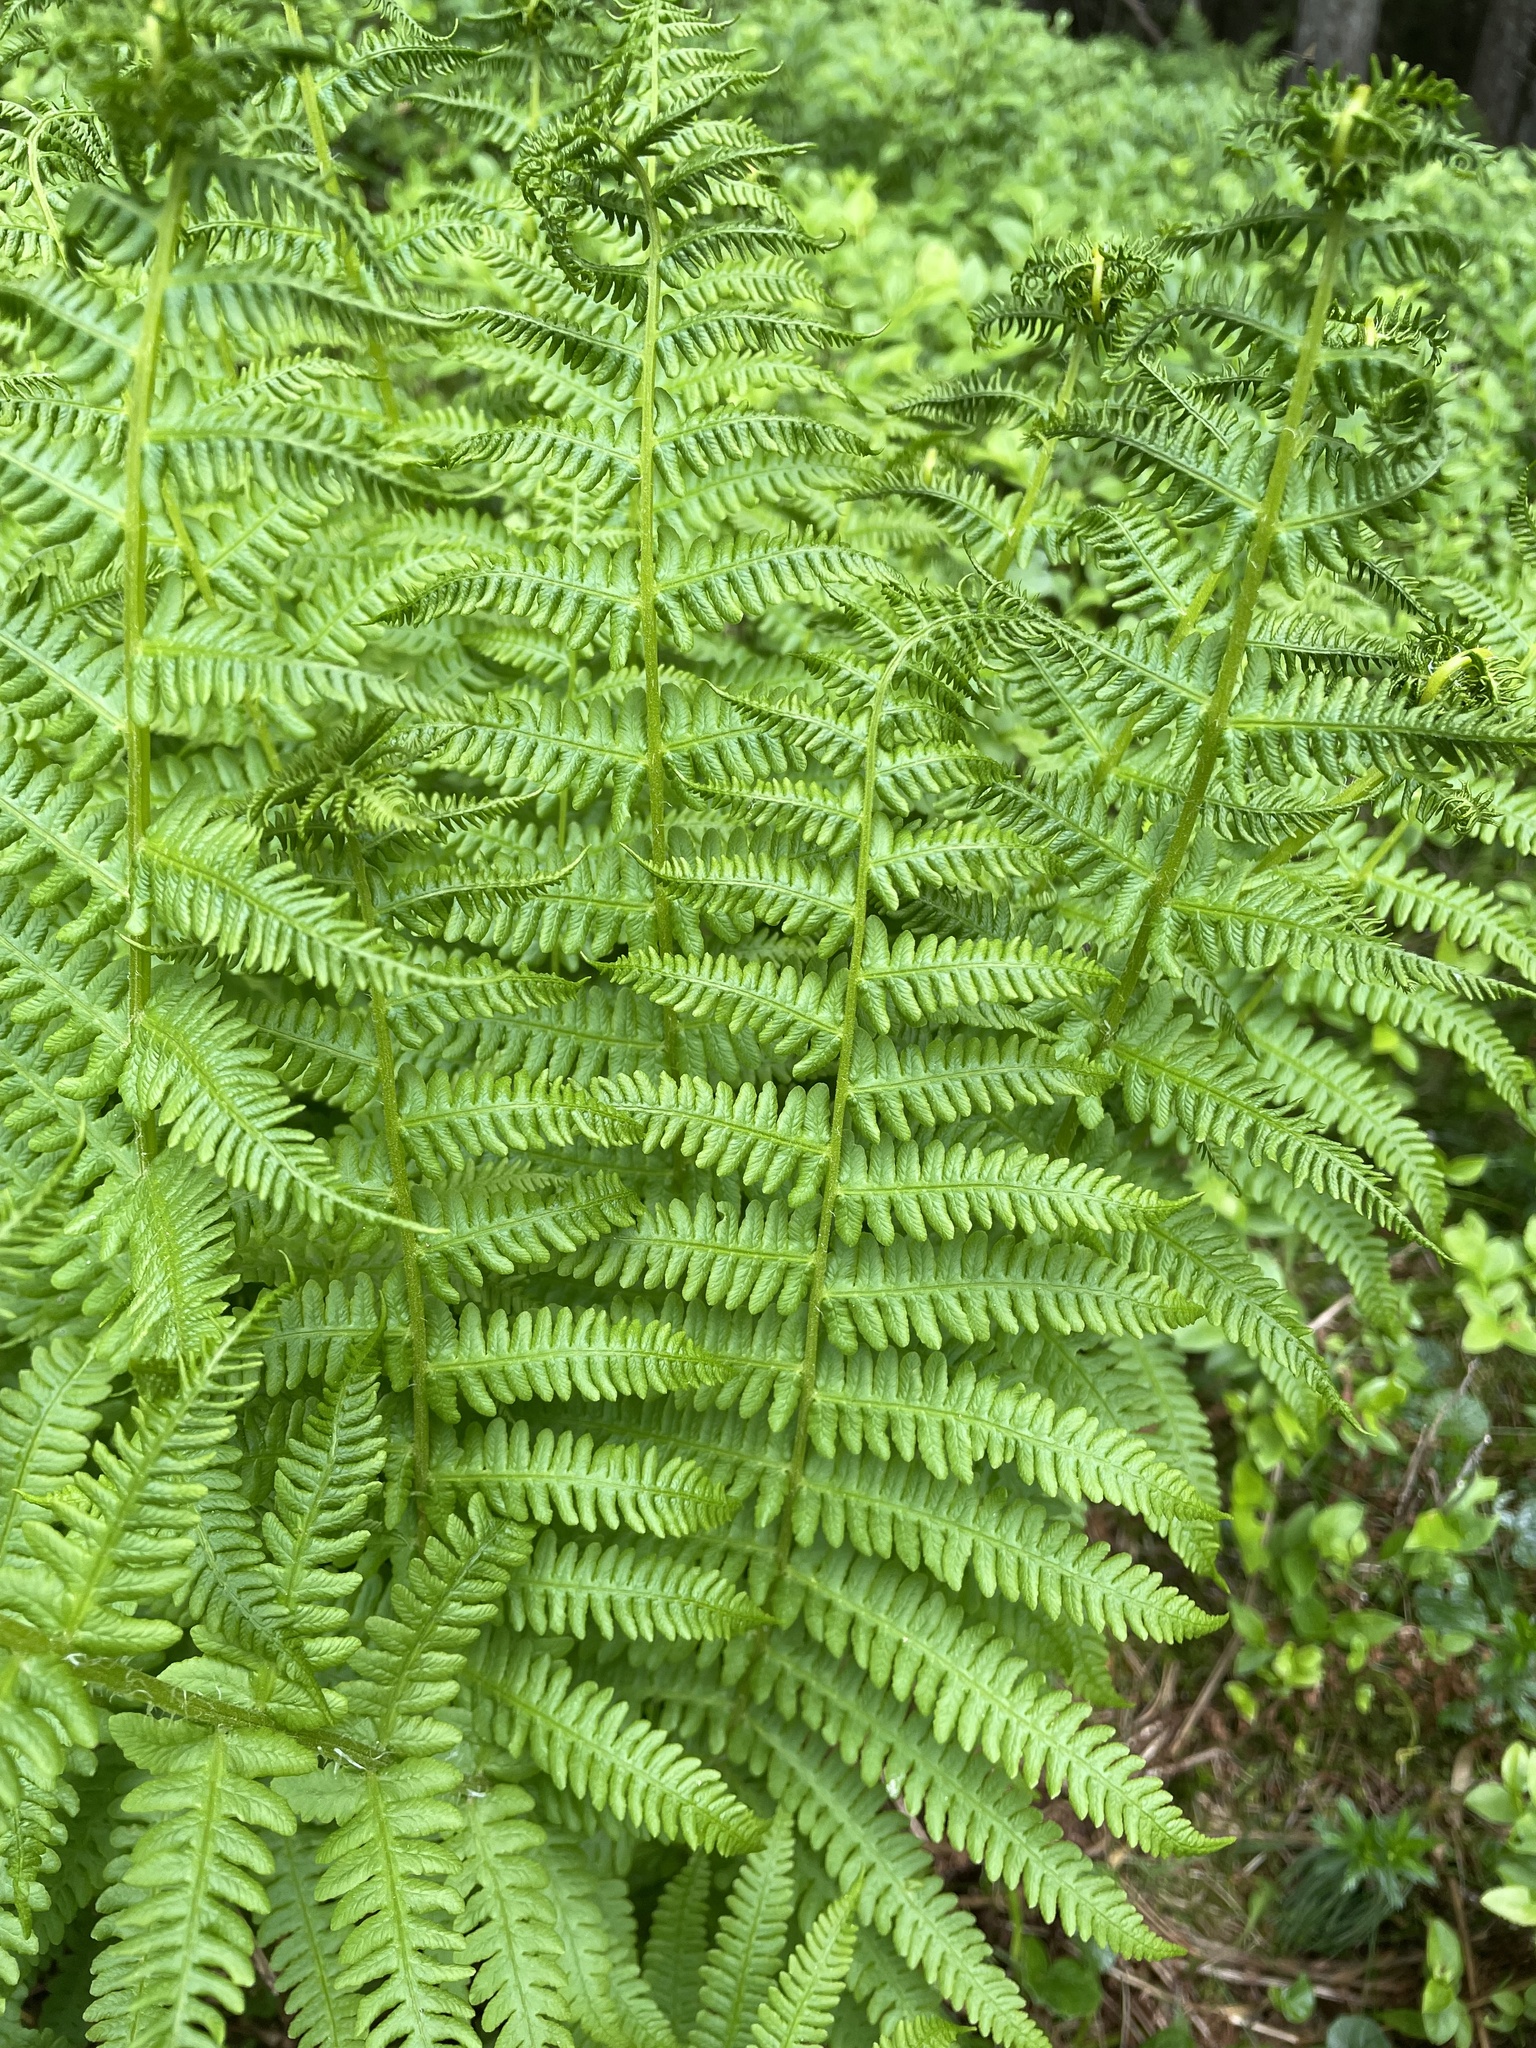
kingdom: Plantae
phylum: Tracheophyta
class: Polypodiopsida
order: Polypodiales
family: Thelypteridaceae
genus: Oreopteris
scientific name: Oreopteris limbosperma
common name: Lemon-scented fern
